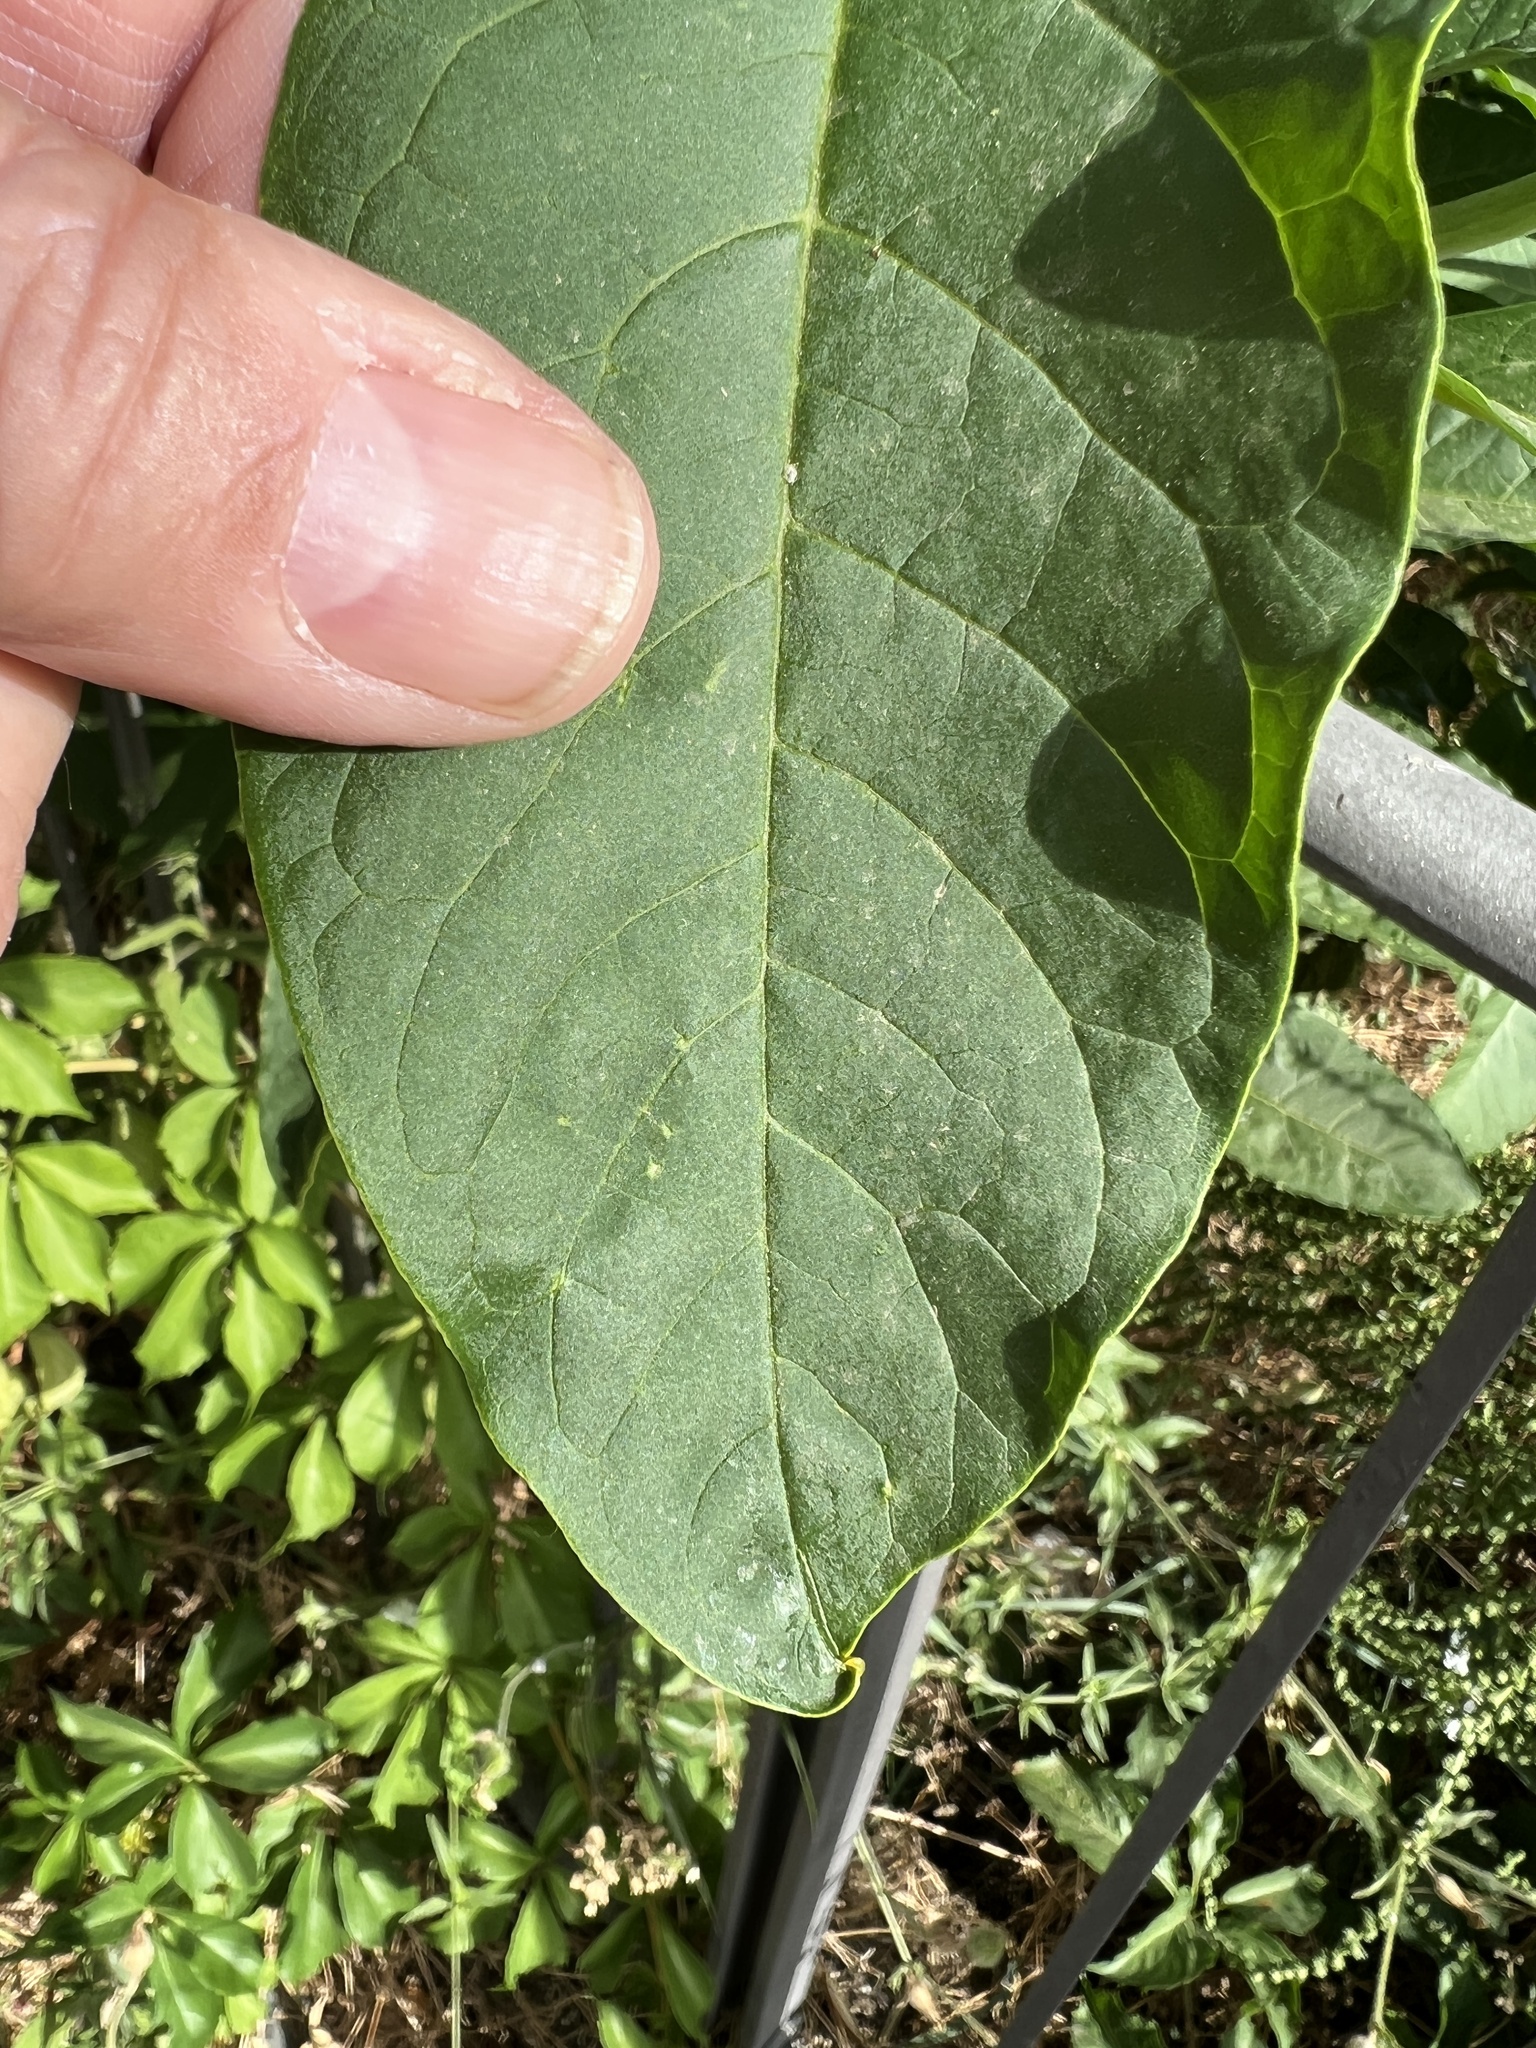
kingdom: Plantae
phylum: Tracheophyta
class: Magnoliopsida
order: Caryophyllales
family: Phytolaccaceae
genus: Phytolacca
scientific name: Phytolacca americana
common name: American pokeweed
